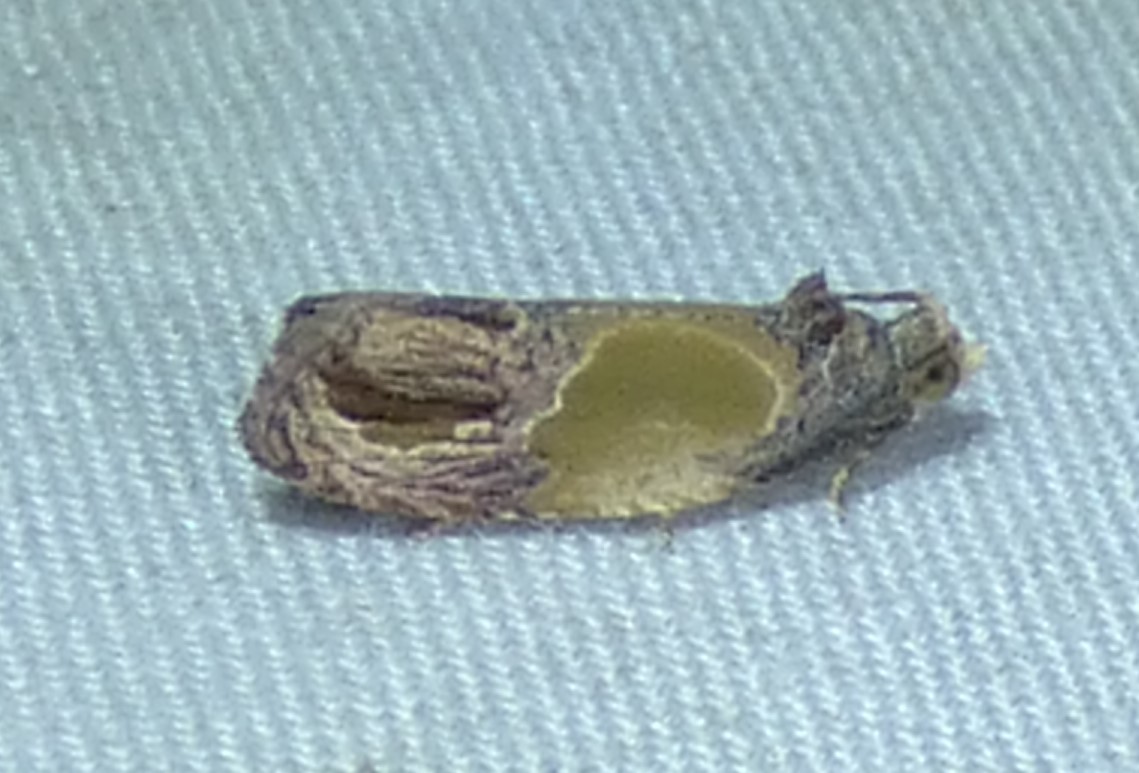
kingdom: Animalia
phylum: Arthropoda
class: Insecta
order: Lepidoptera
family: Tortricidae
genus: Eumarozia
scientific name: Eumarozia malachitana
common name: Sculptured moth
